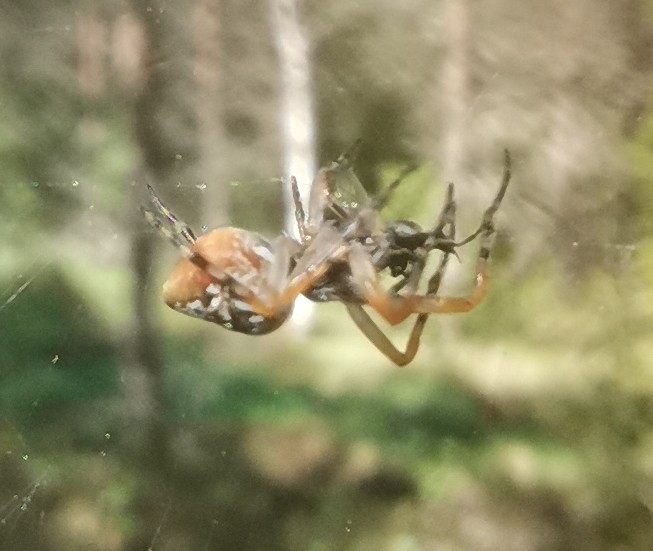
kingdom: Animalia
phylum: Arthropoda
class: Arachnida
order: Araneae
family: Araneidae
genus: Cyclosa
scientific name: Cyclosa conica
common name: Conical trashline orbweaver
